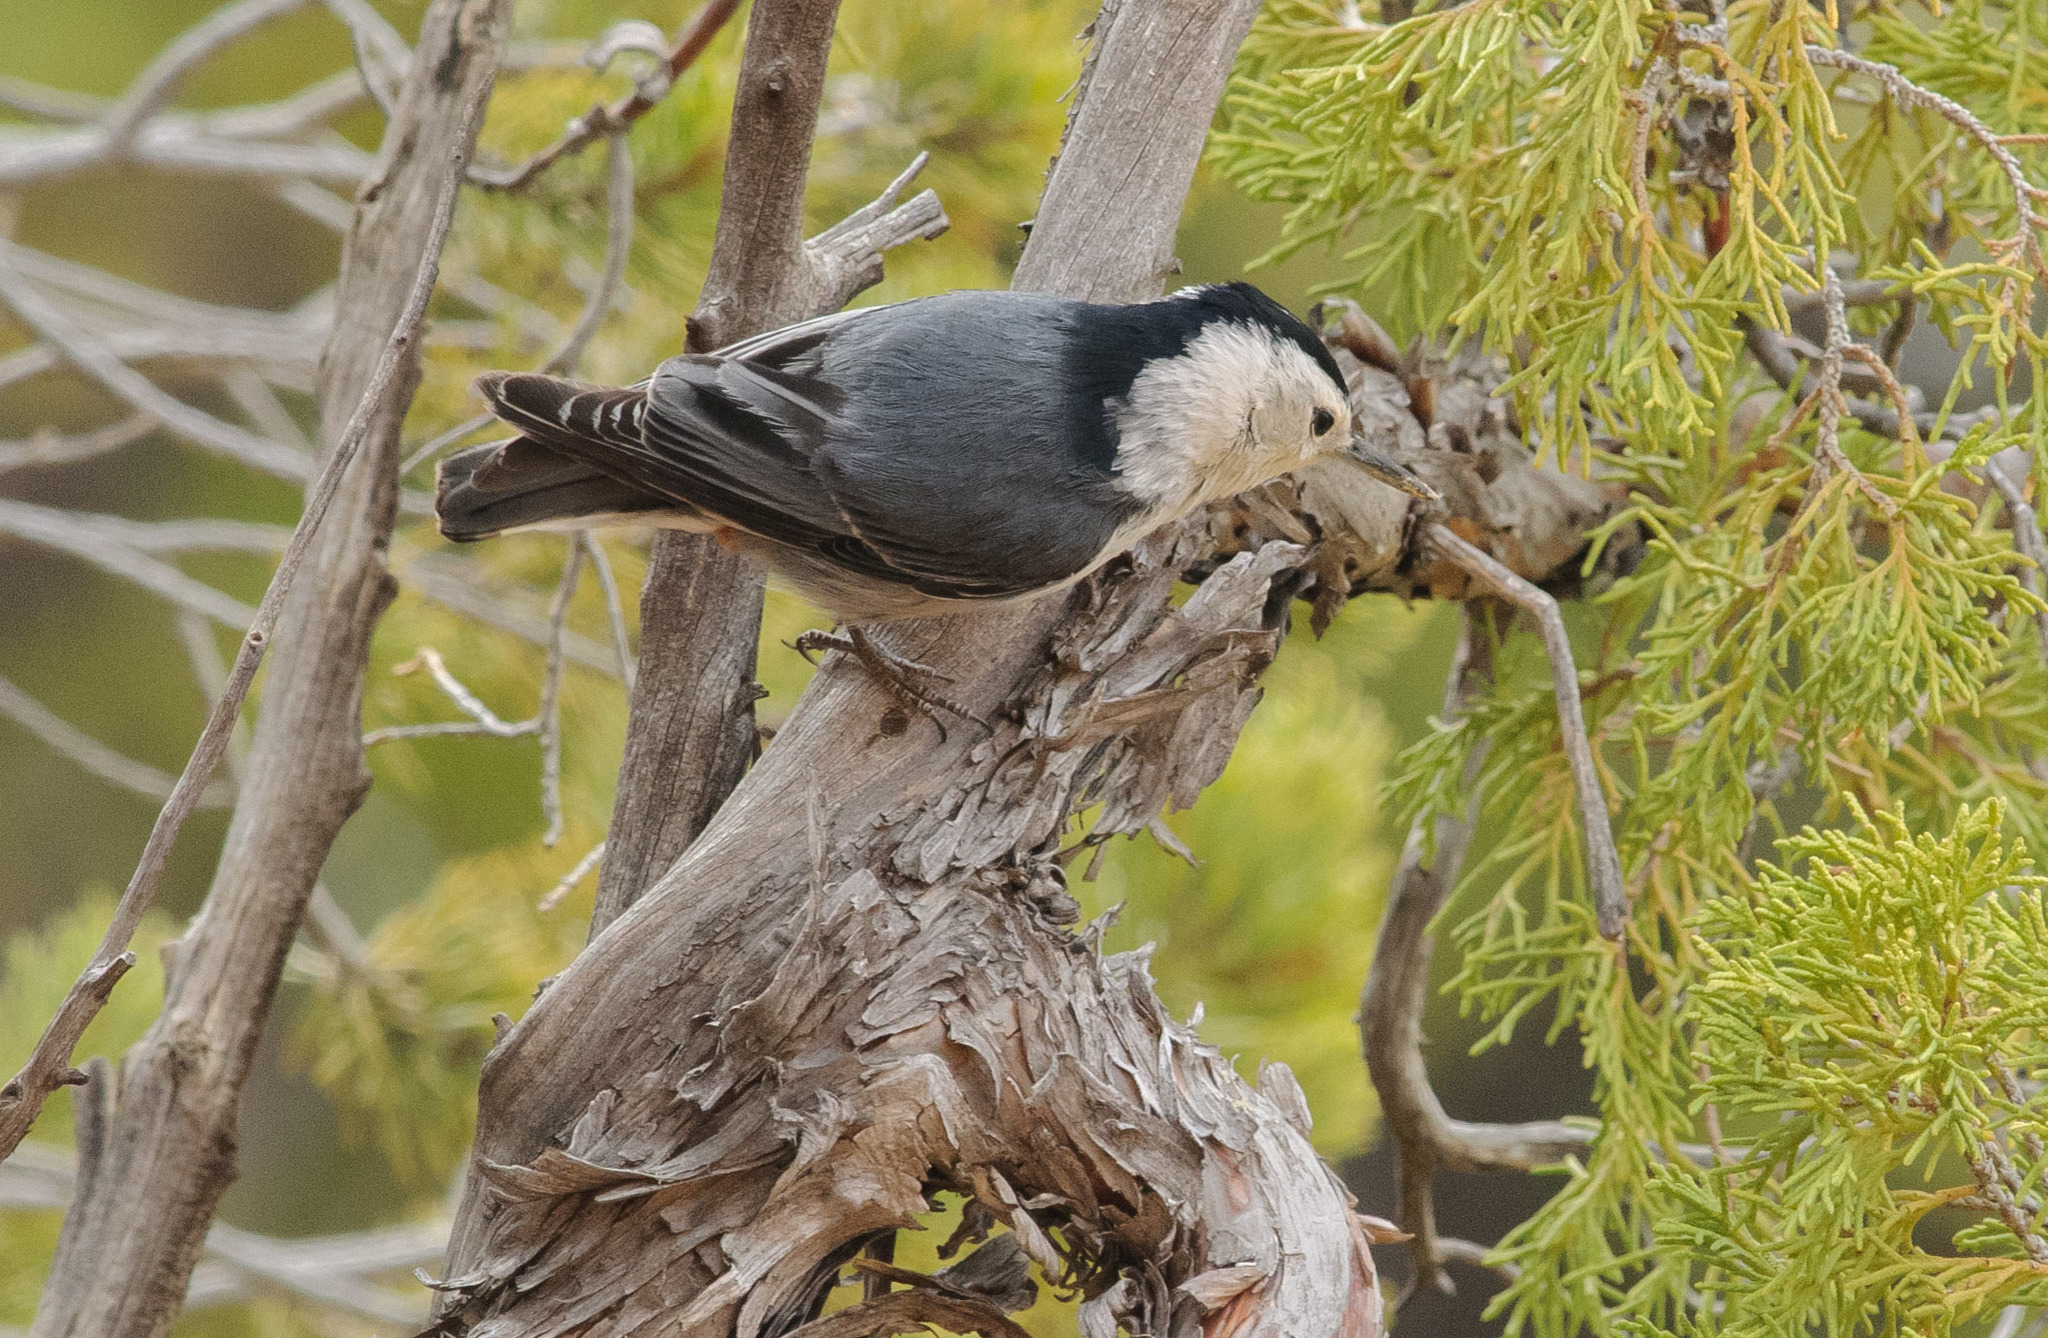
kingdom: Animalia
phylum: Chordata
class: Aves
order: Passeriformes
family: Sittidae
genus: Sitta
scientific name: Sitta carolinensis
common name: White-breasted nuthatch
